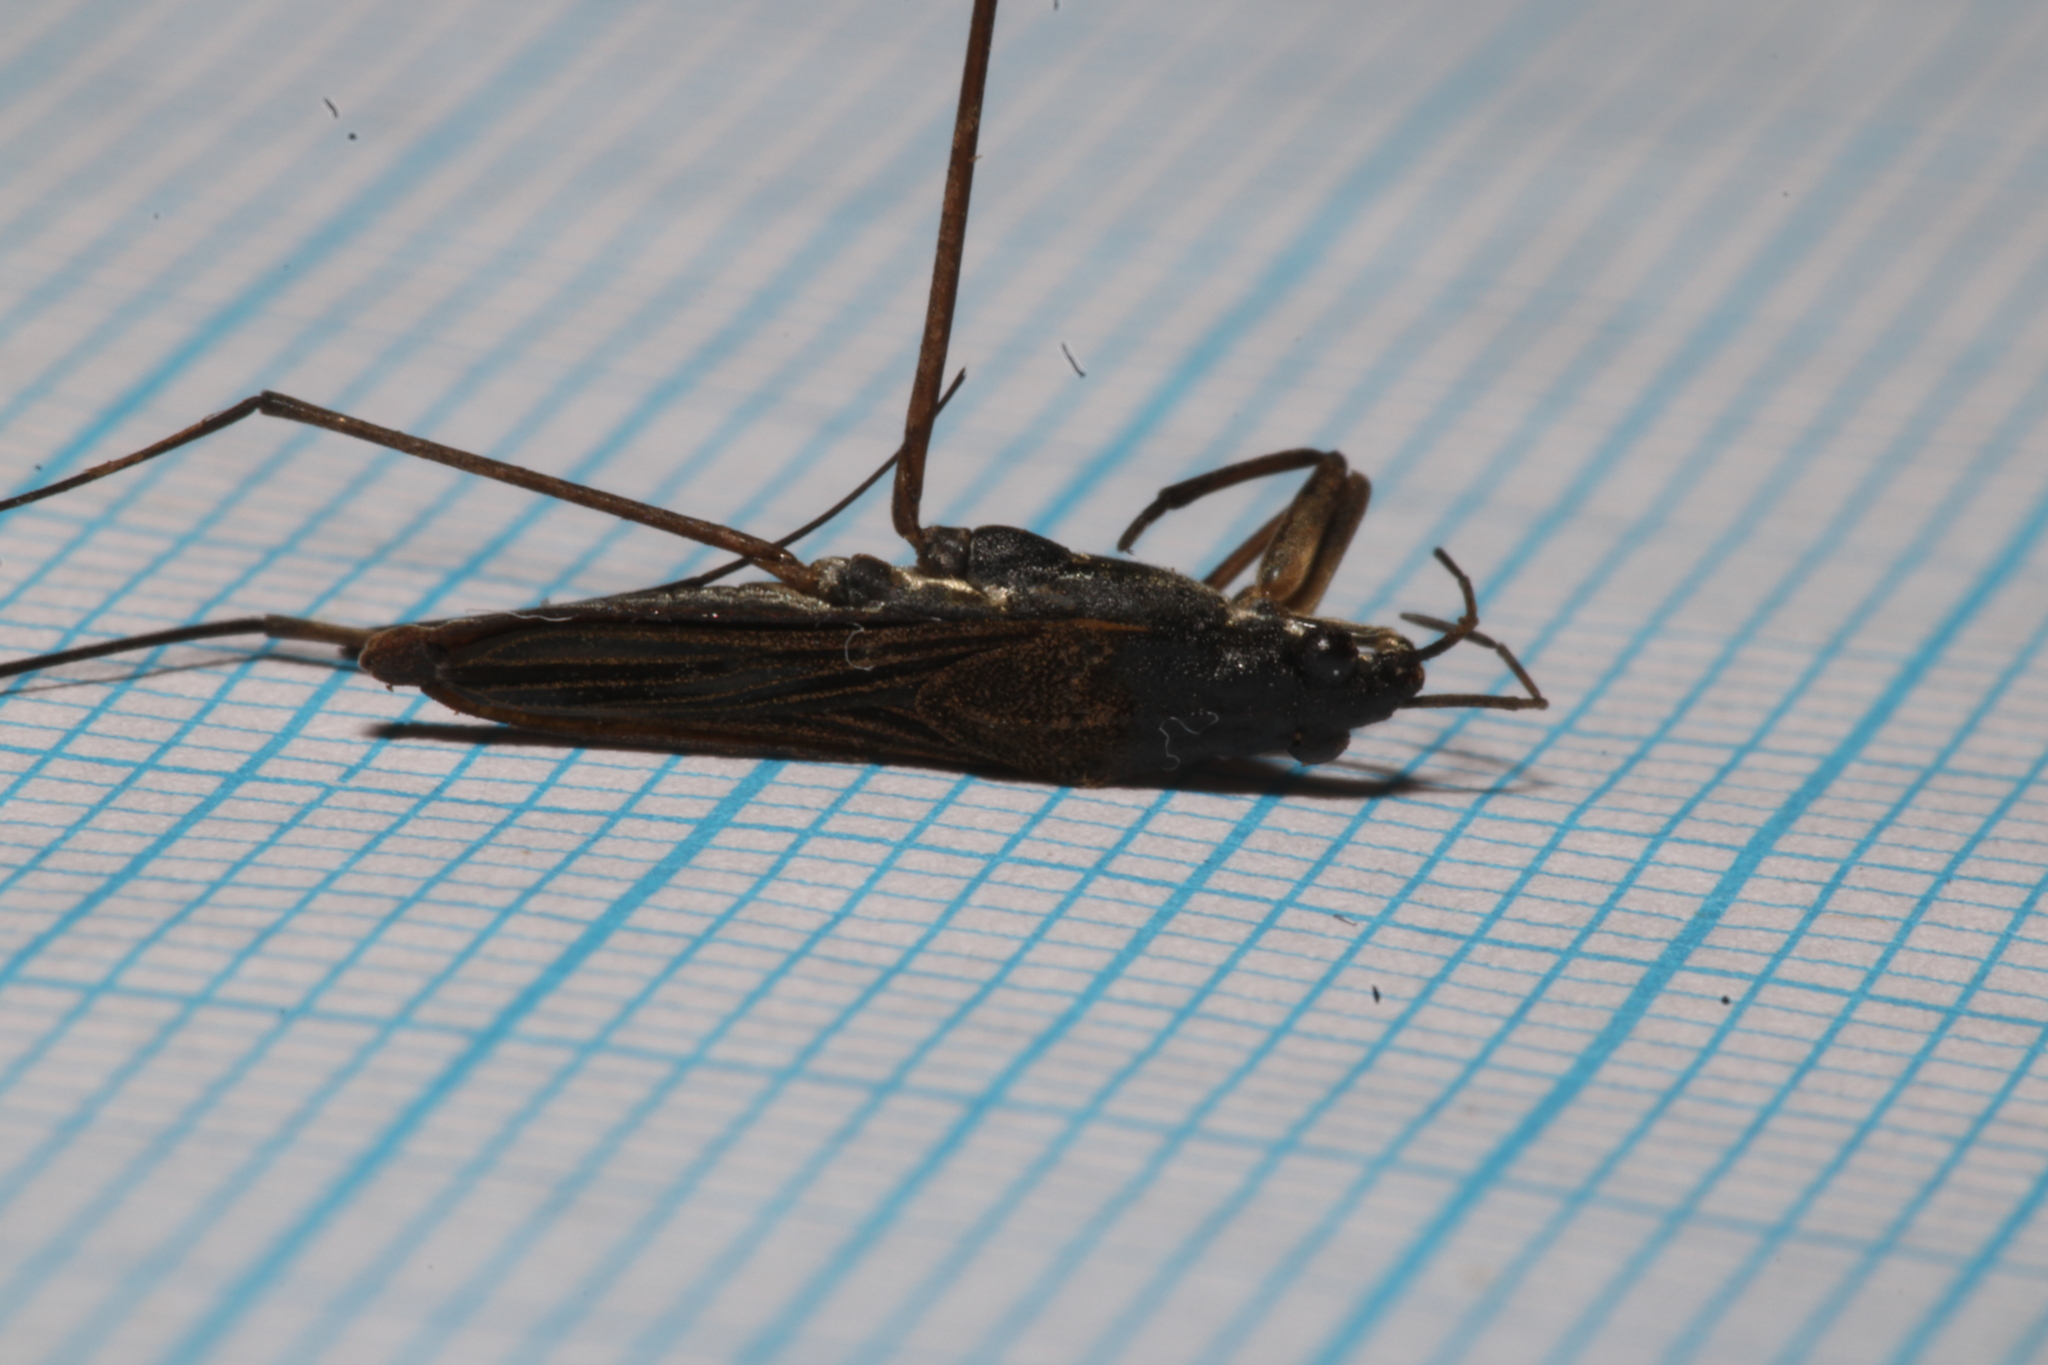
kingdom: Animalia
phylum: Arthropoda
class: Insecta
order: Hemiptera
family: Gerridae
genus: Gerris
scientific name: Gerris gibbifer
